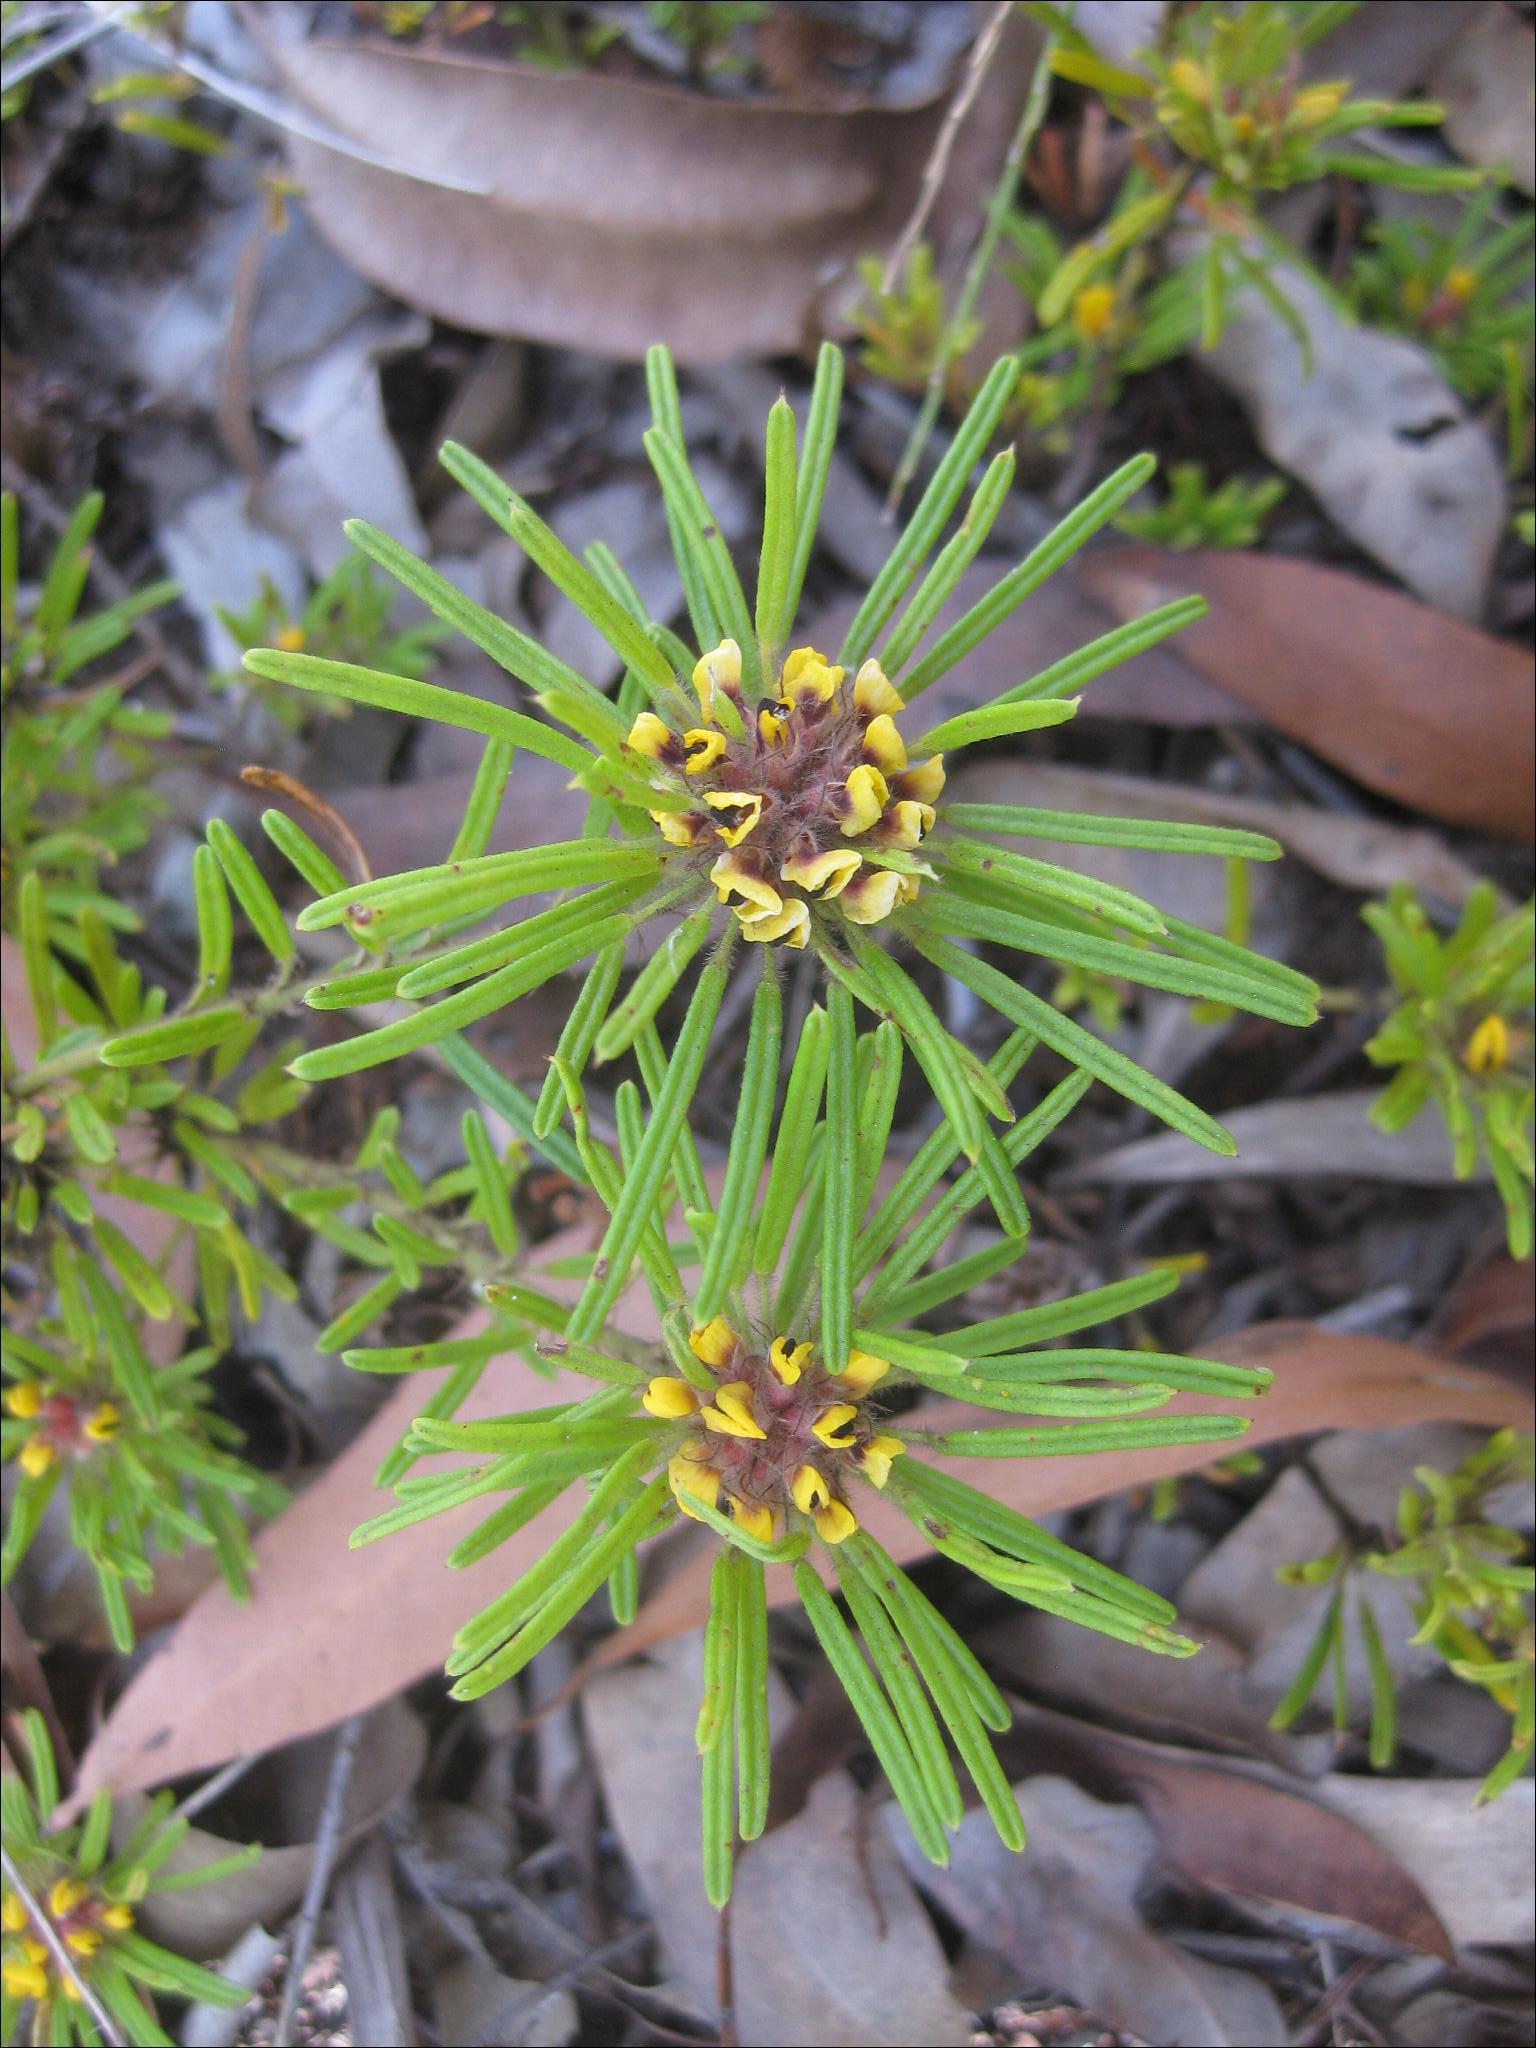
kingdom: Plantae
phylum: Tracheophyta
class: Magnoliopsida
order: Fabales
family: Fabaceae
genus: Pultenaea
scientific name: Pultenaea petiolaris
